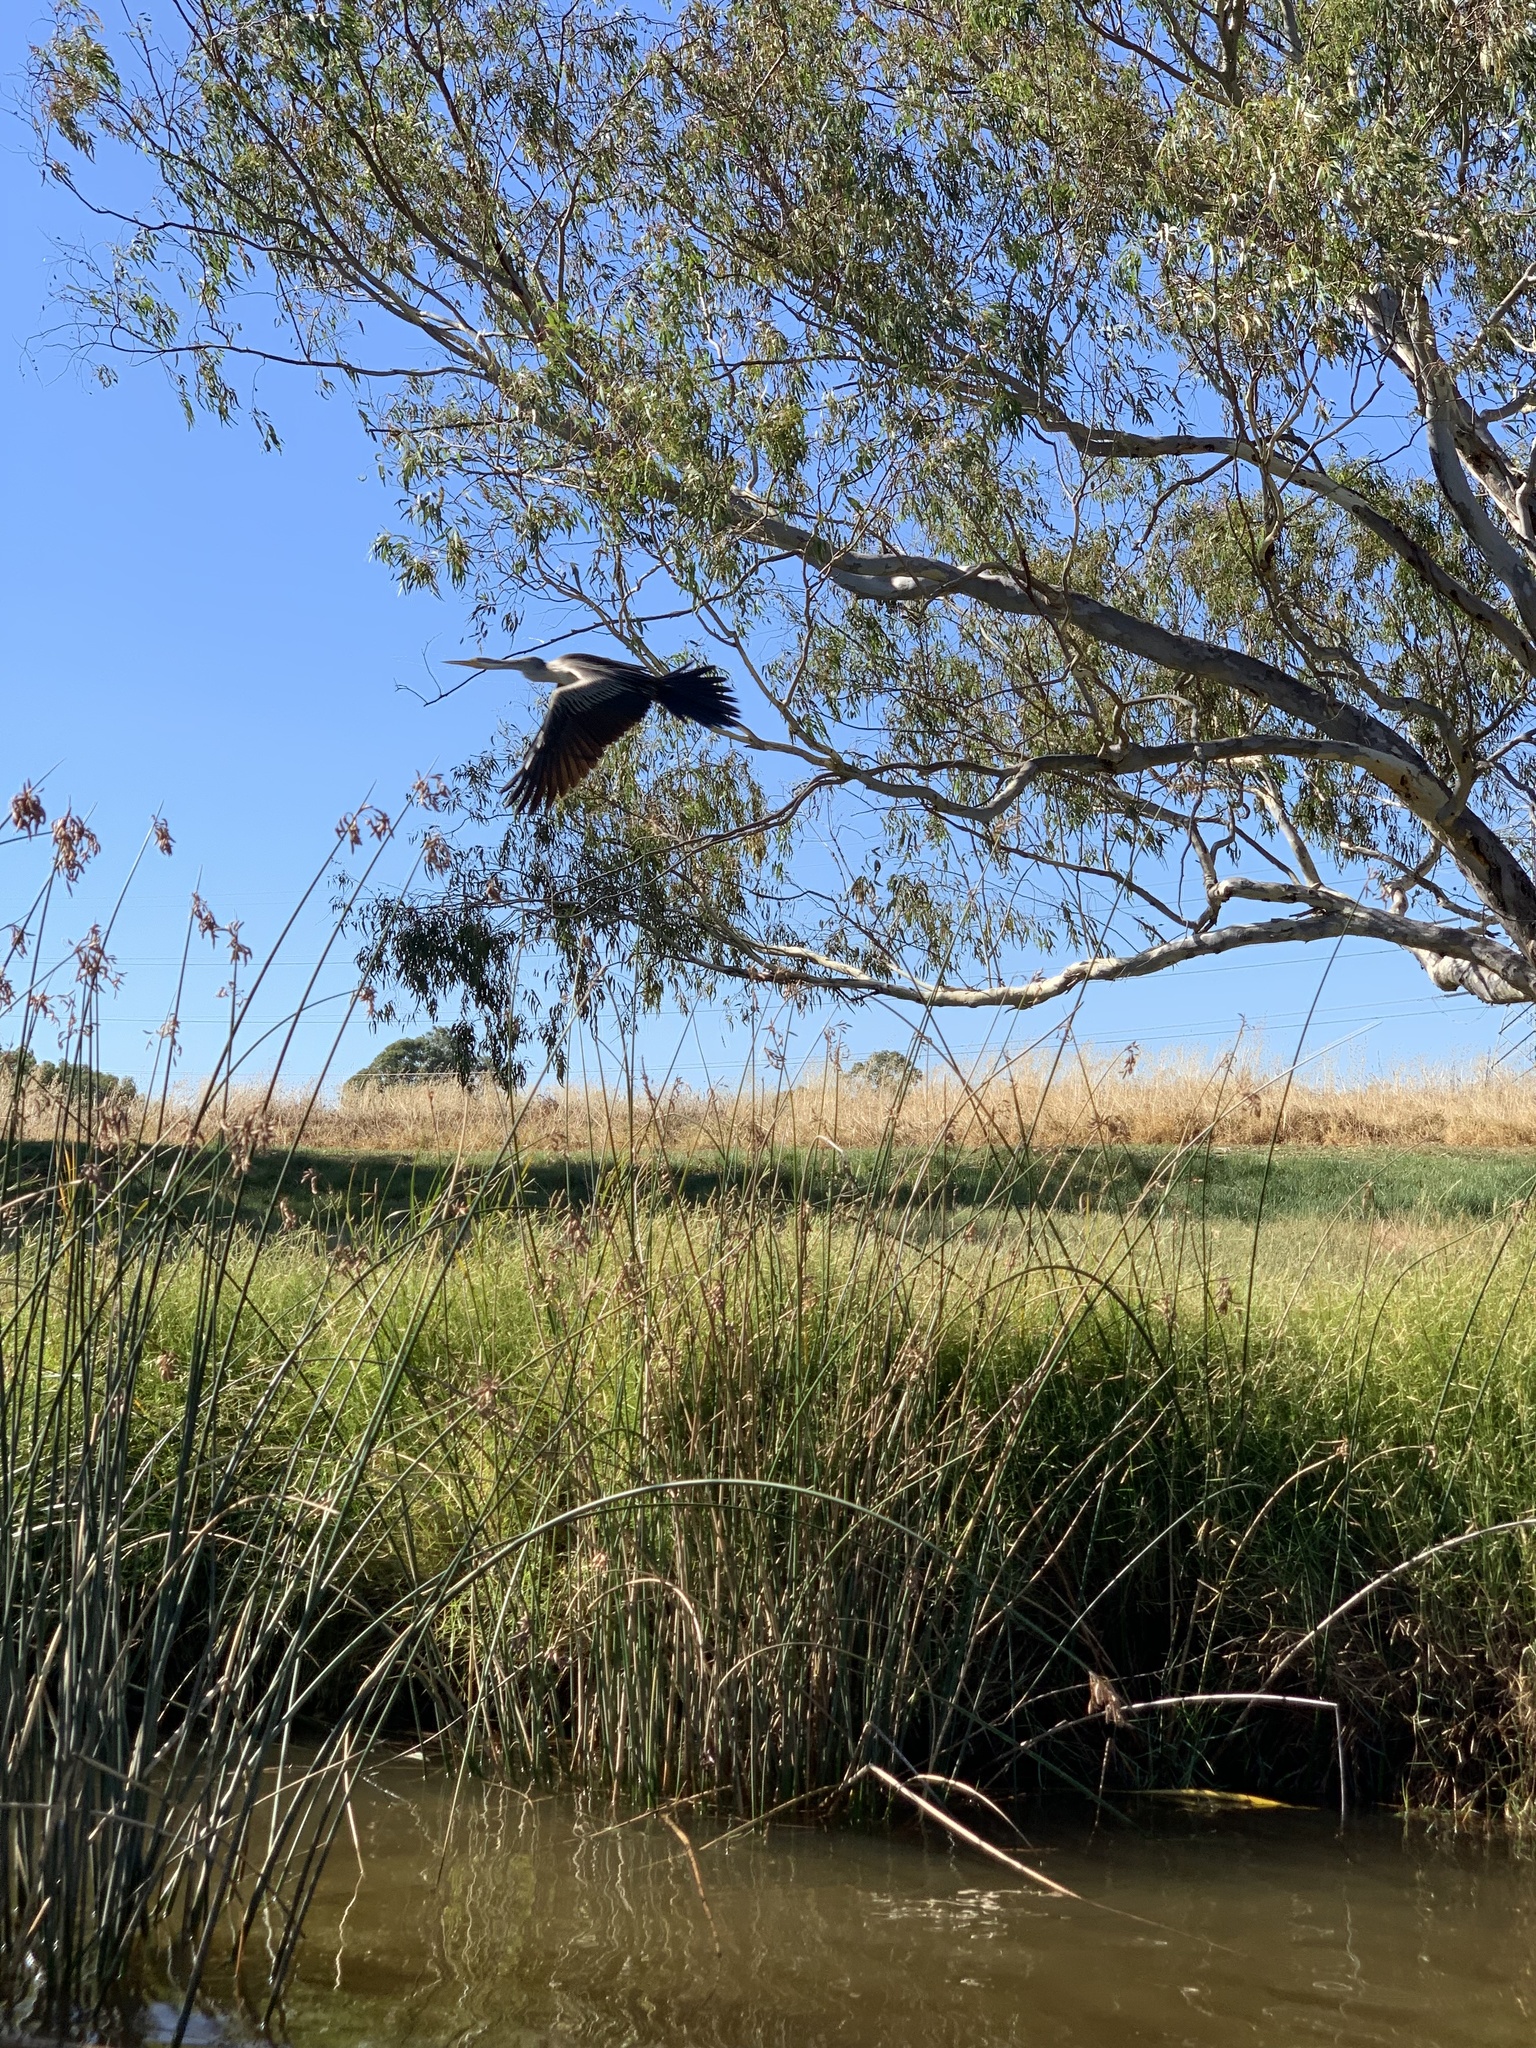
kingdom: Animalia
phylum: Chordata
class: Aves
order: Suliformes
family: Anhingidae
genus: Anhinga
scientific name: Anhinga novaehollandiae
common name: Australasian darter
